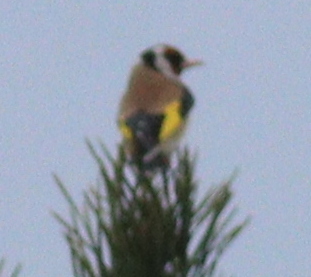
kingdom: Animalia
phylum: Chordata
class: Aves
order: Passeriformes
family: Fringillidae
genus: Carduelis
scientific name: Carduelis carduelis
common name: European goldfinch
